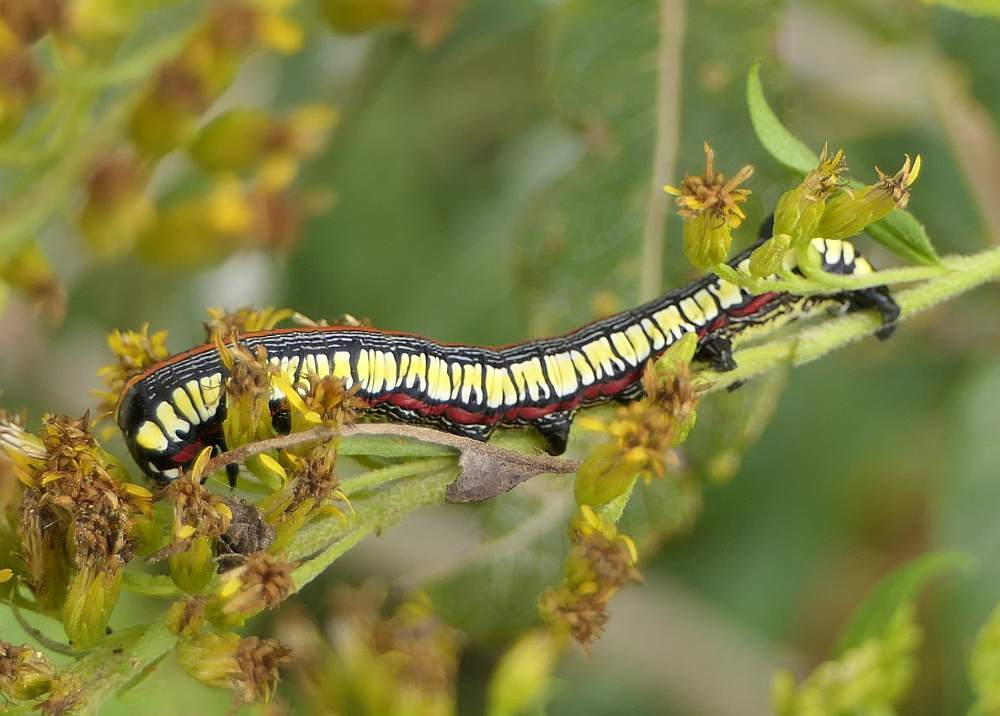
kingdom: Animalia
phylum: Arthropoda
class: Insecta
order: Lepidoptera
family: Noctuidae
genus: Cucullia
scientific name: Cucullia convexipennis
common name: Brown-hooded owlet
